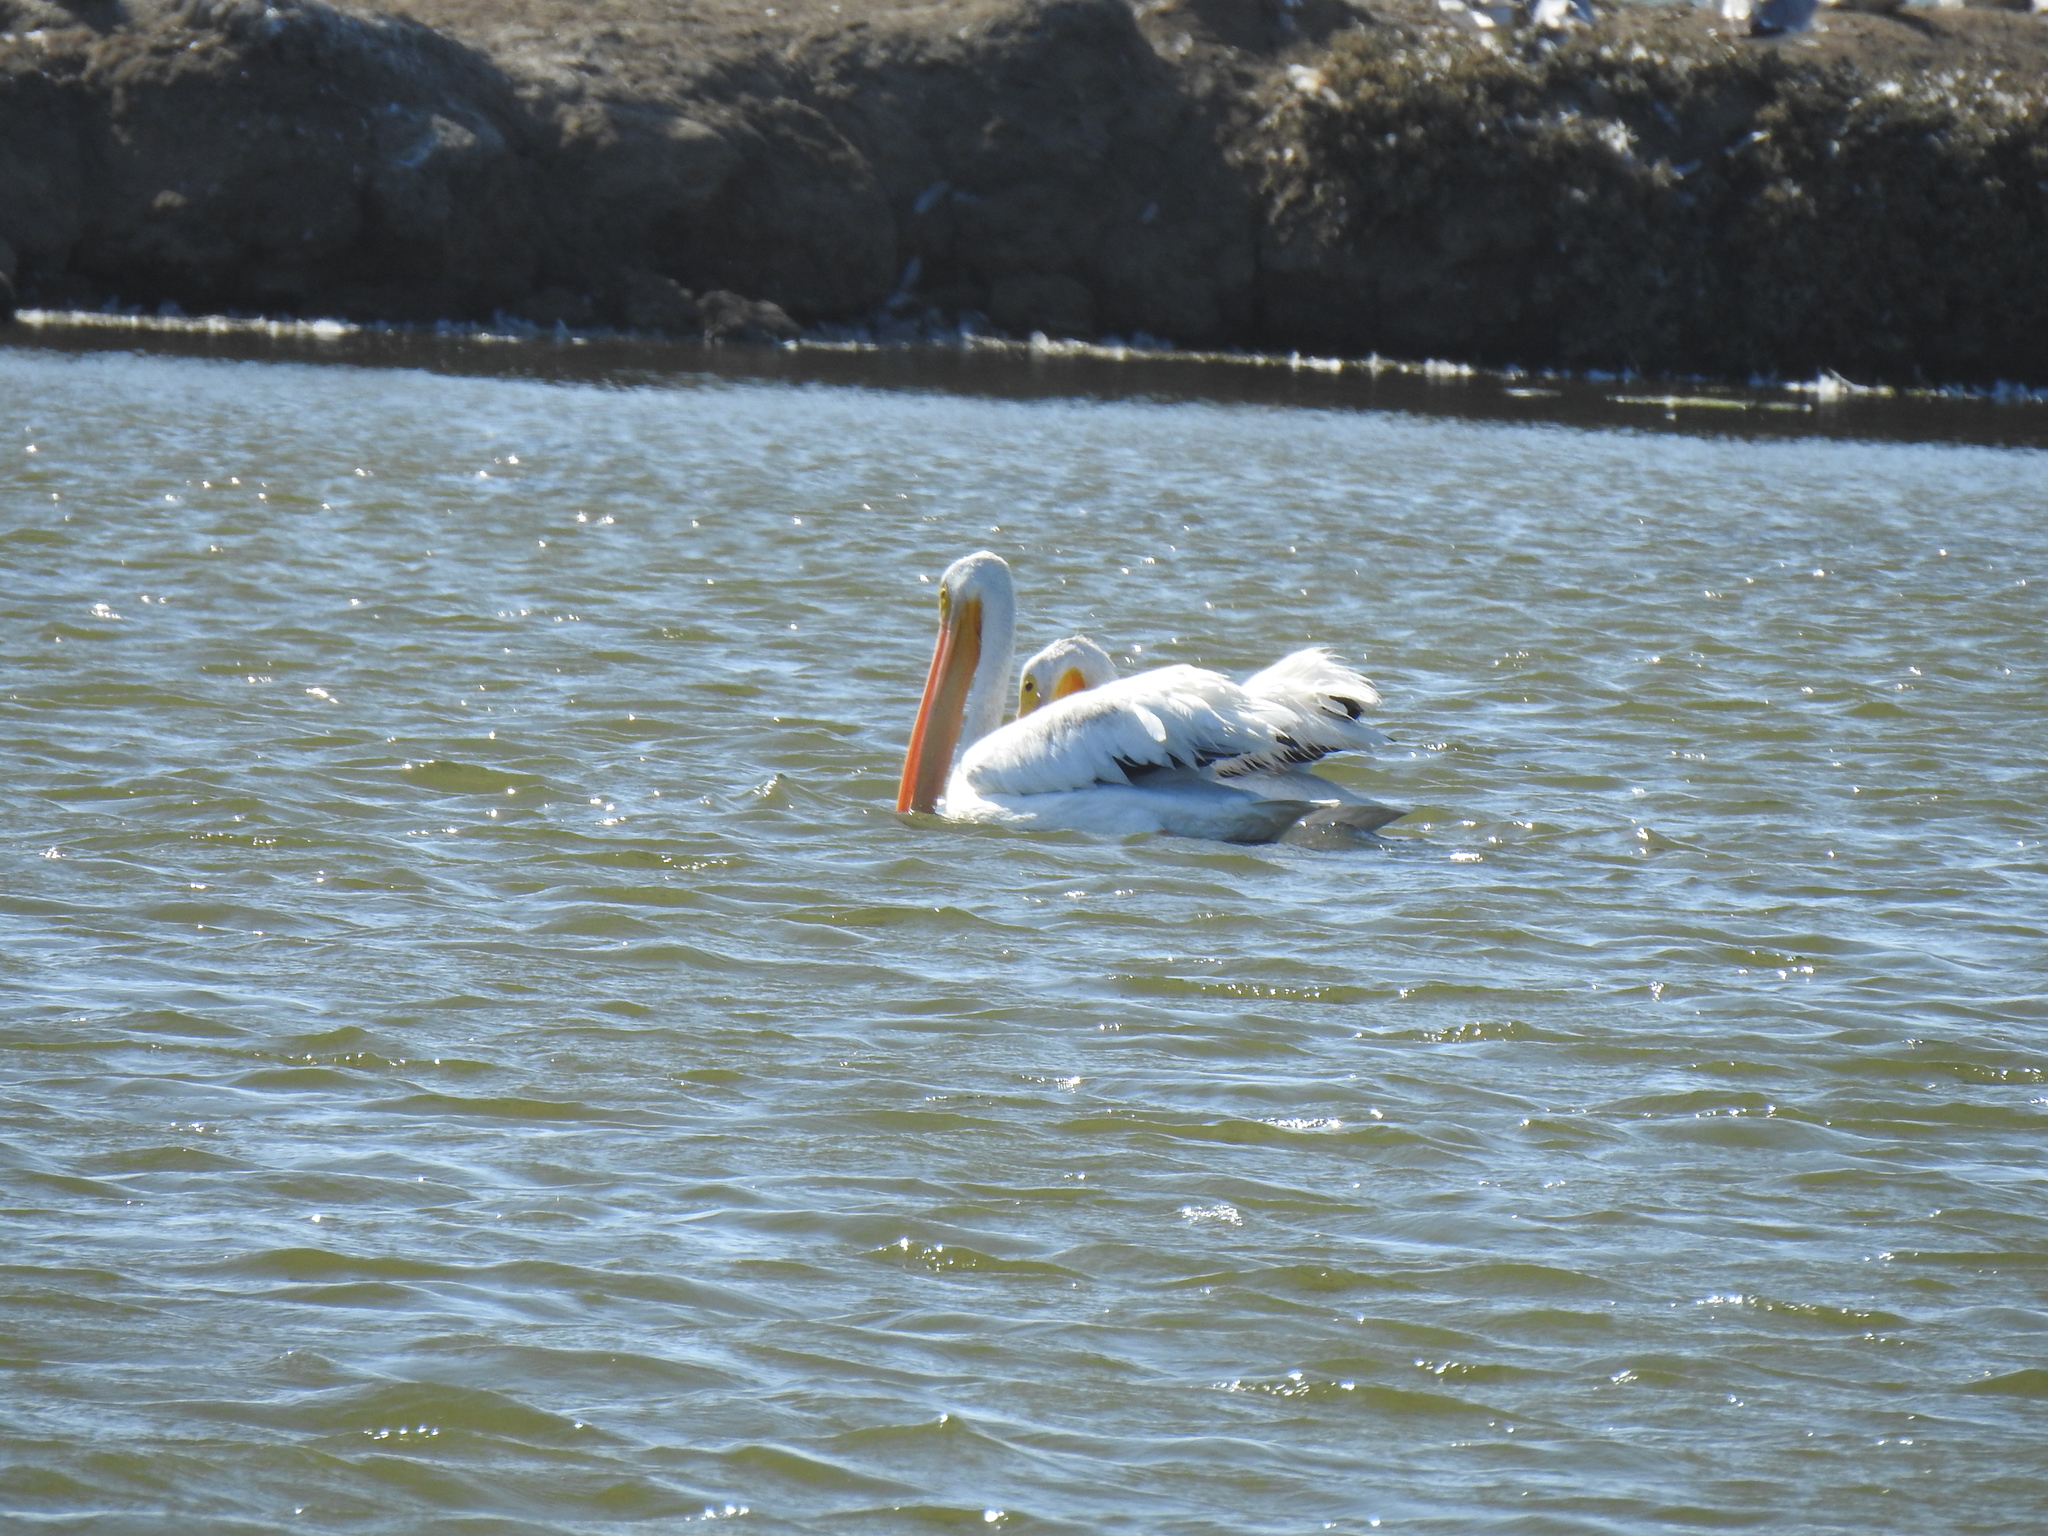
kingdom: Animalia
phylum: Chordata
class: Aves
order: Pelecaniformes
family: Pelecanidae
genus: Pelecanus
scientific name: Pelecanus erythrorhynchos
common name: American white pelican
